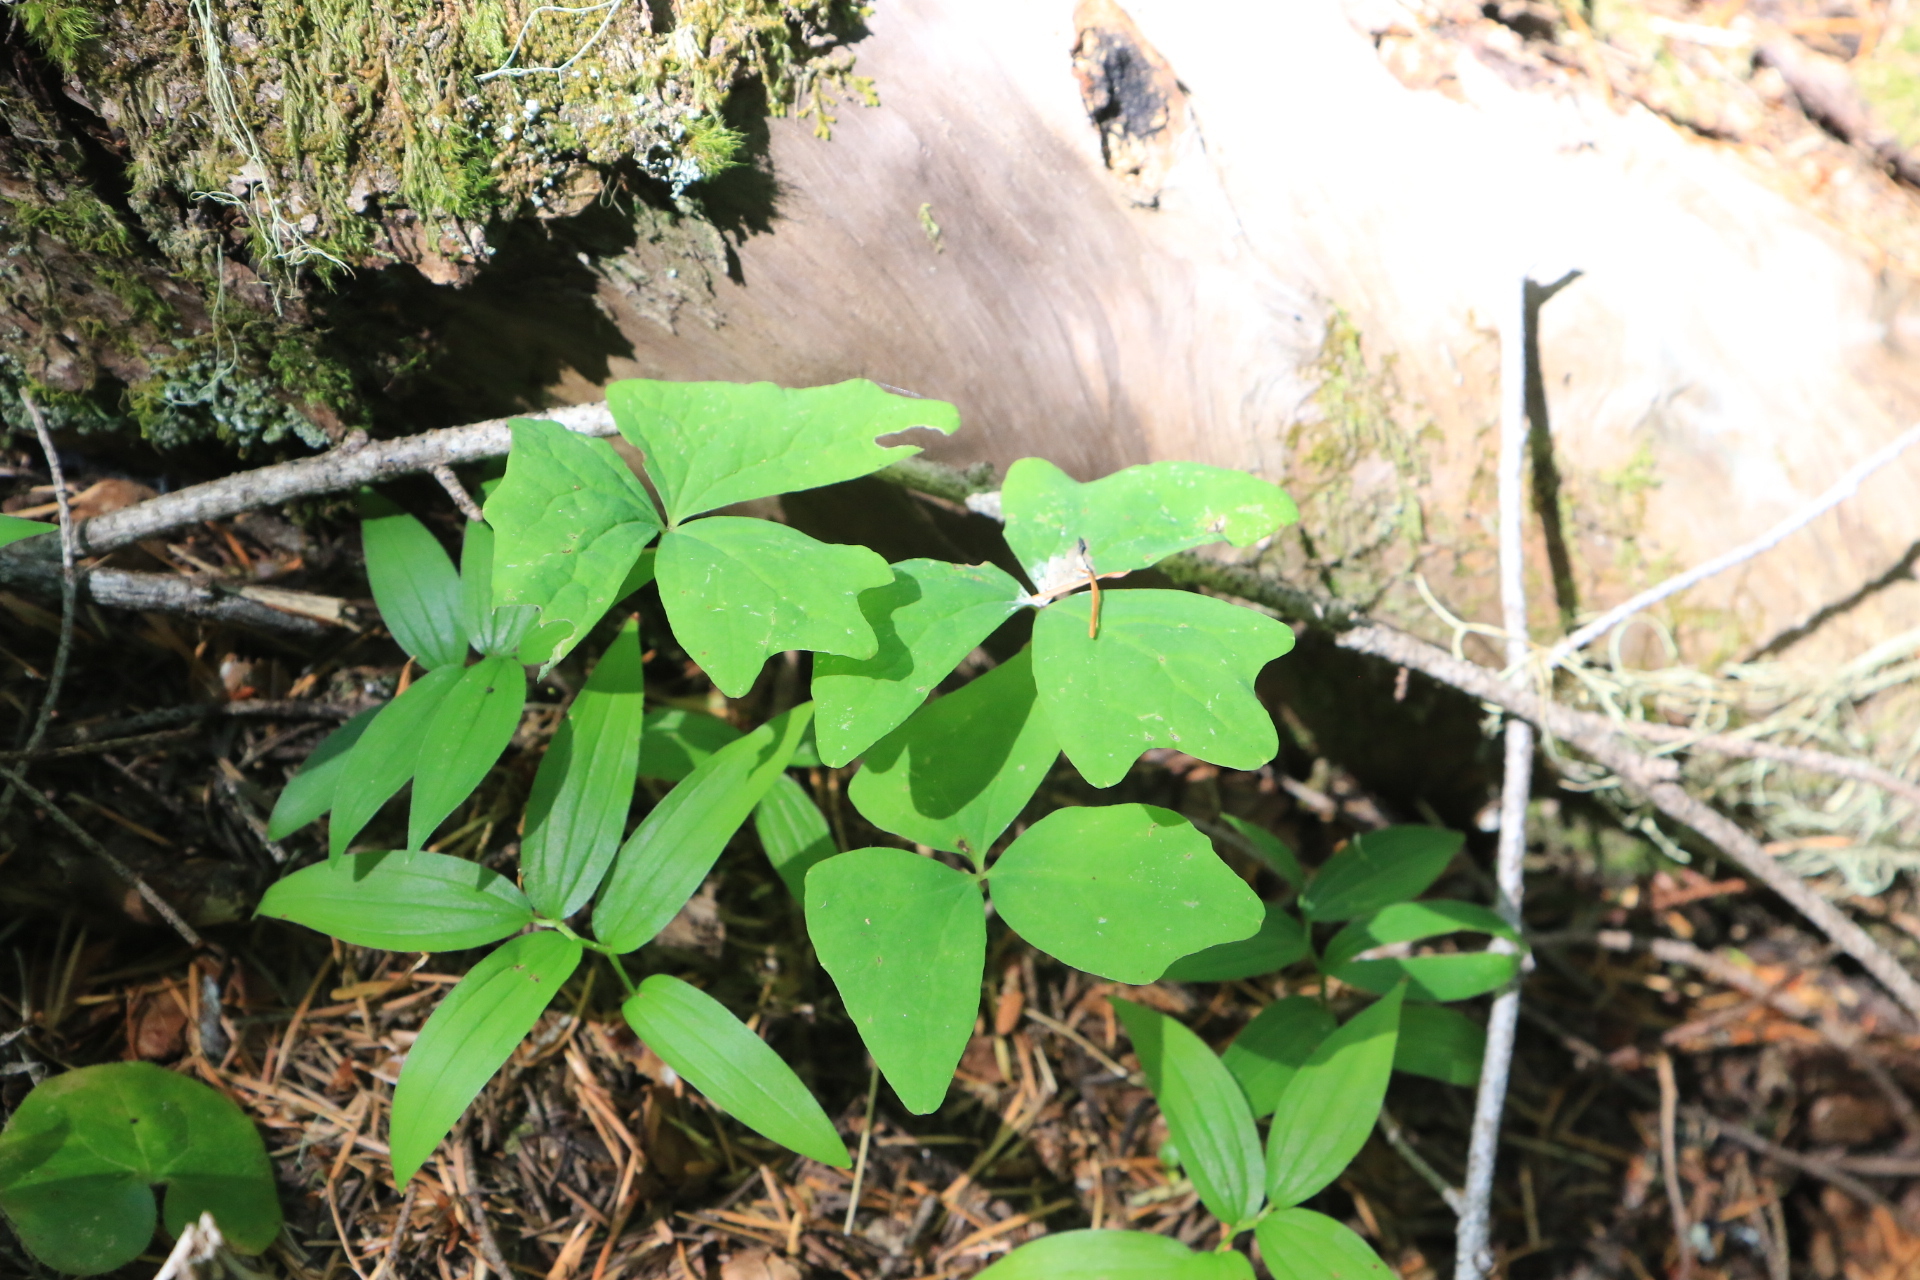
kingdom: Plantae
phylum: Tracheophyta
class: Magnoliopsida
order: Ranunculales
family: Berberidaceae
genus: Achlys
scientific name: Achlys triphylla
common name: Vanilla-leaf
